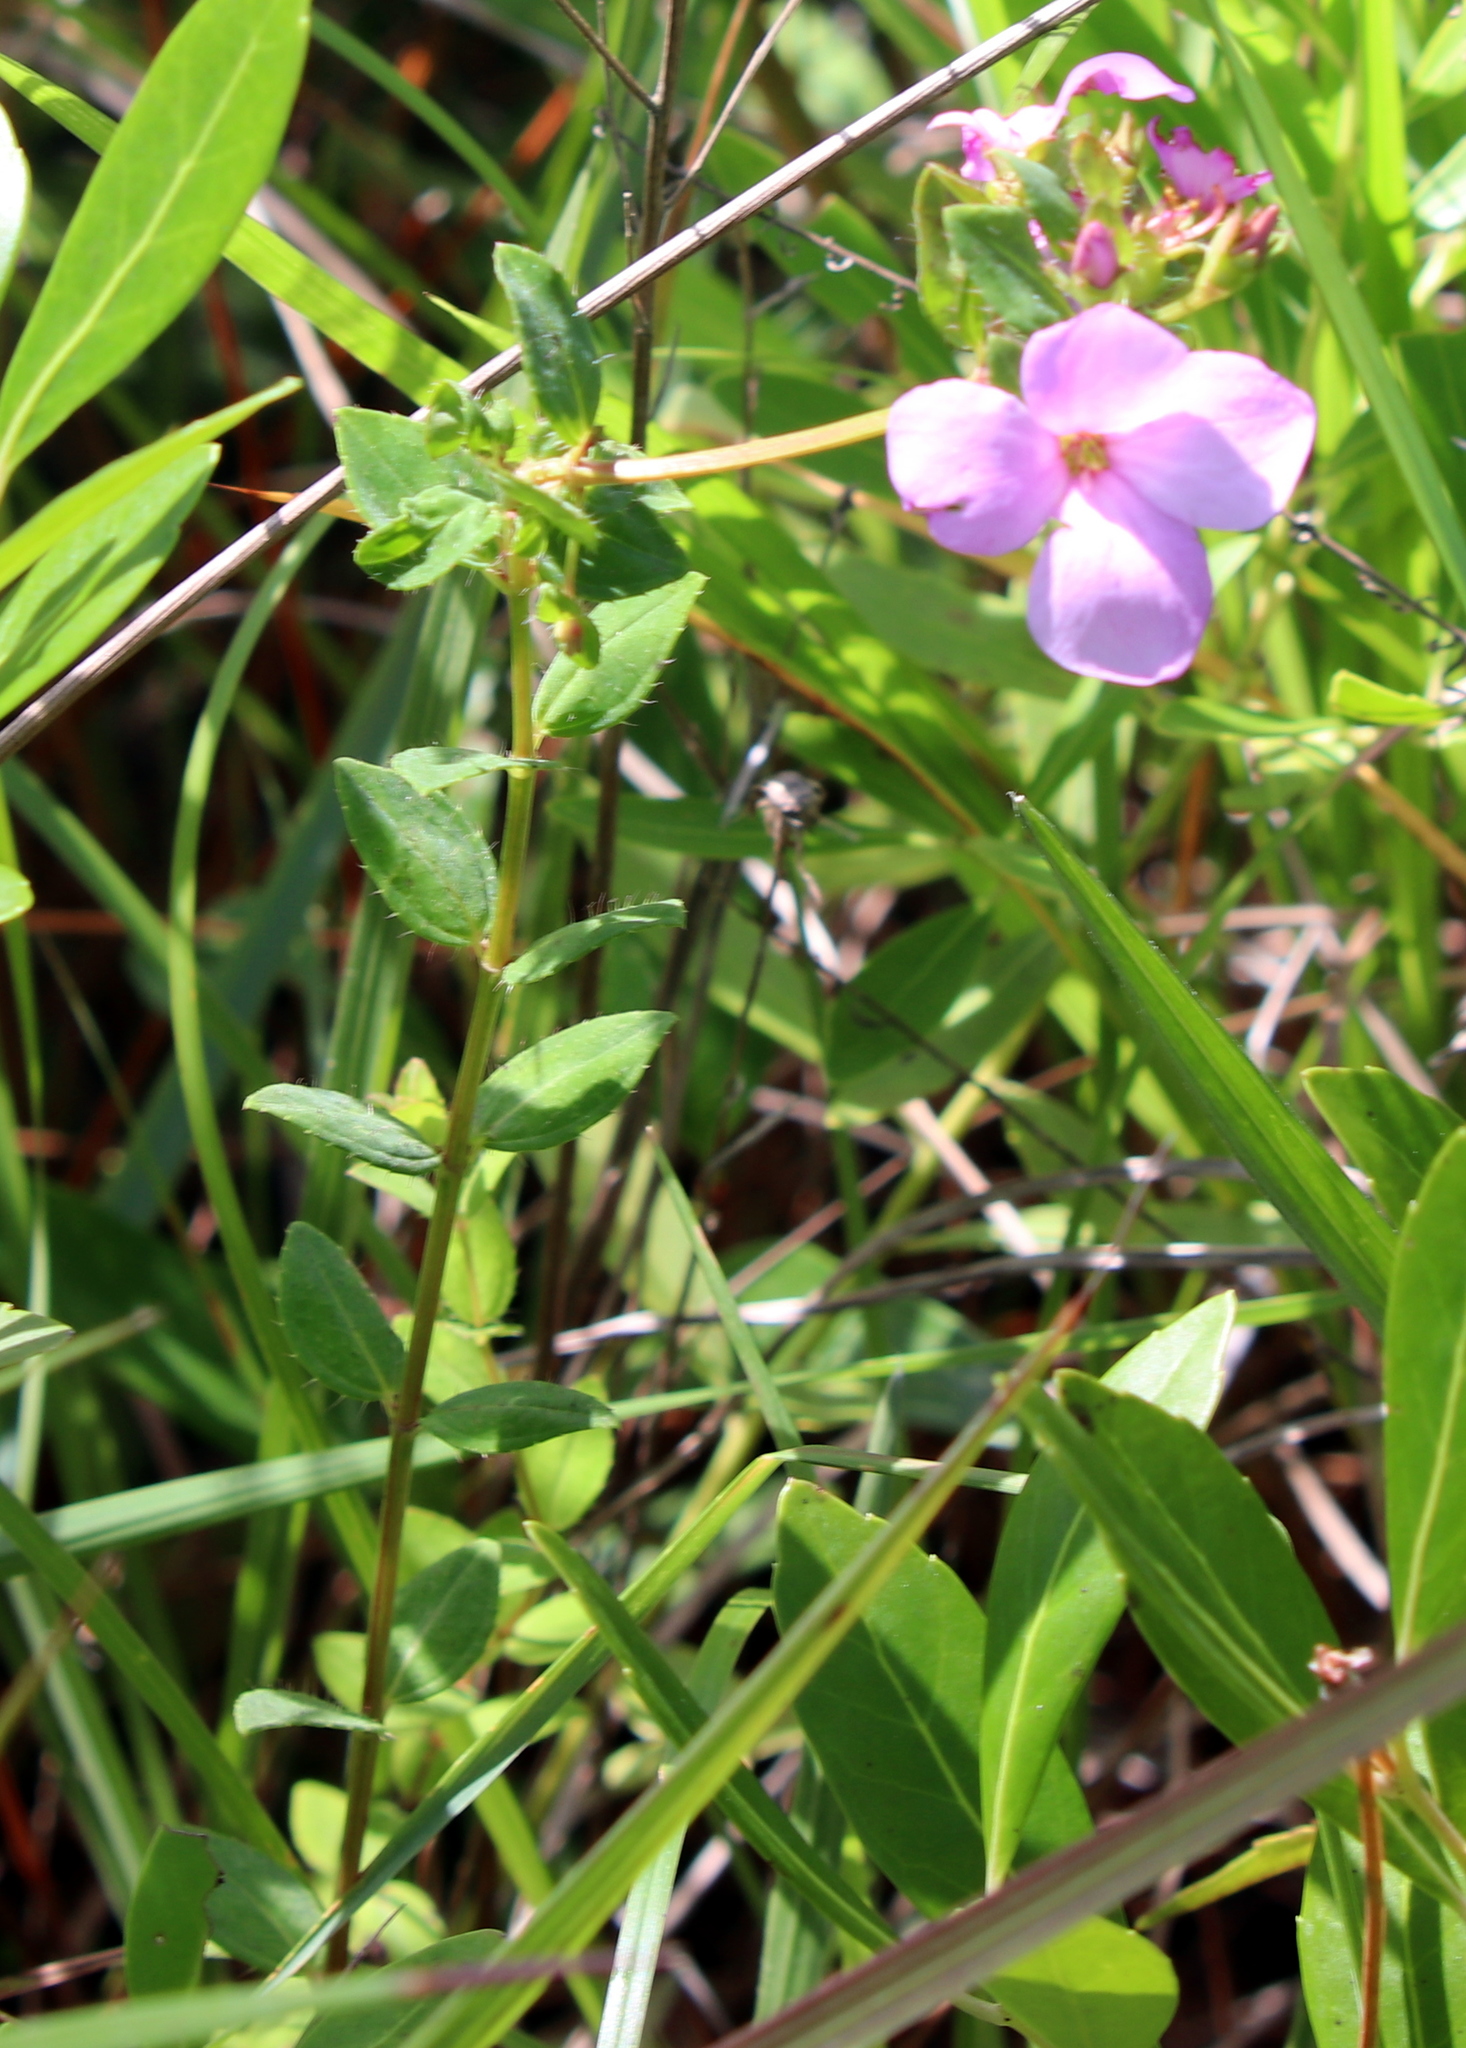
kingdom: Plantae
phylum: Tracheophyta
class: Magnoliopsida
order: Myrtales
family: Melastomataceae
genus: Rhexia
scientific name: Rhexia petiolata
